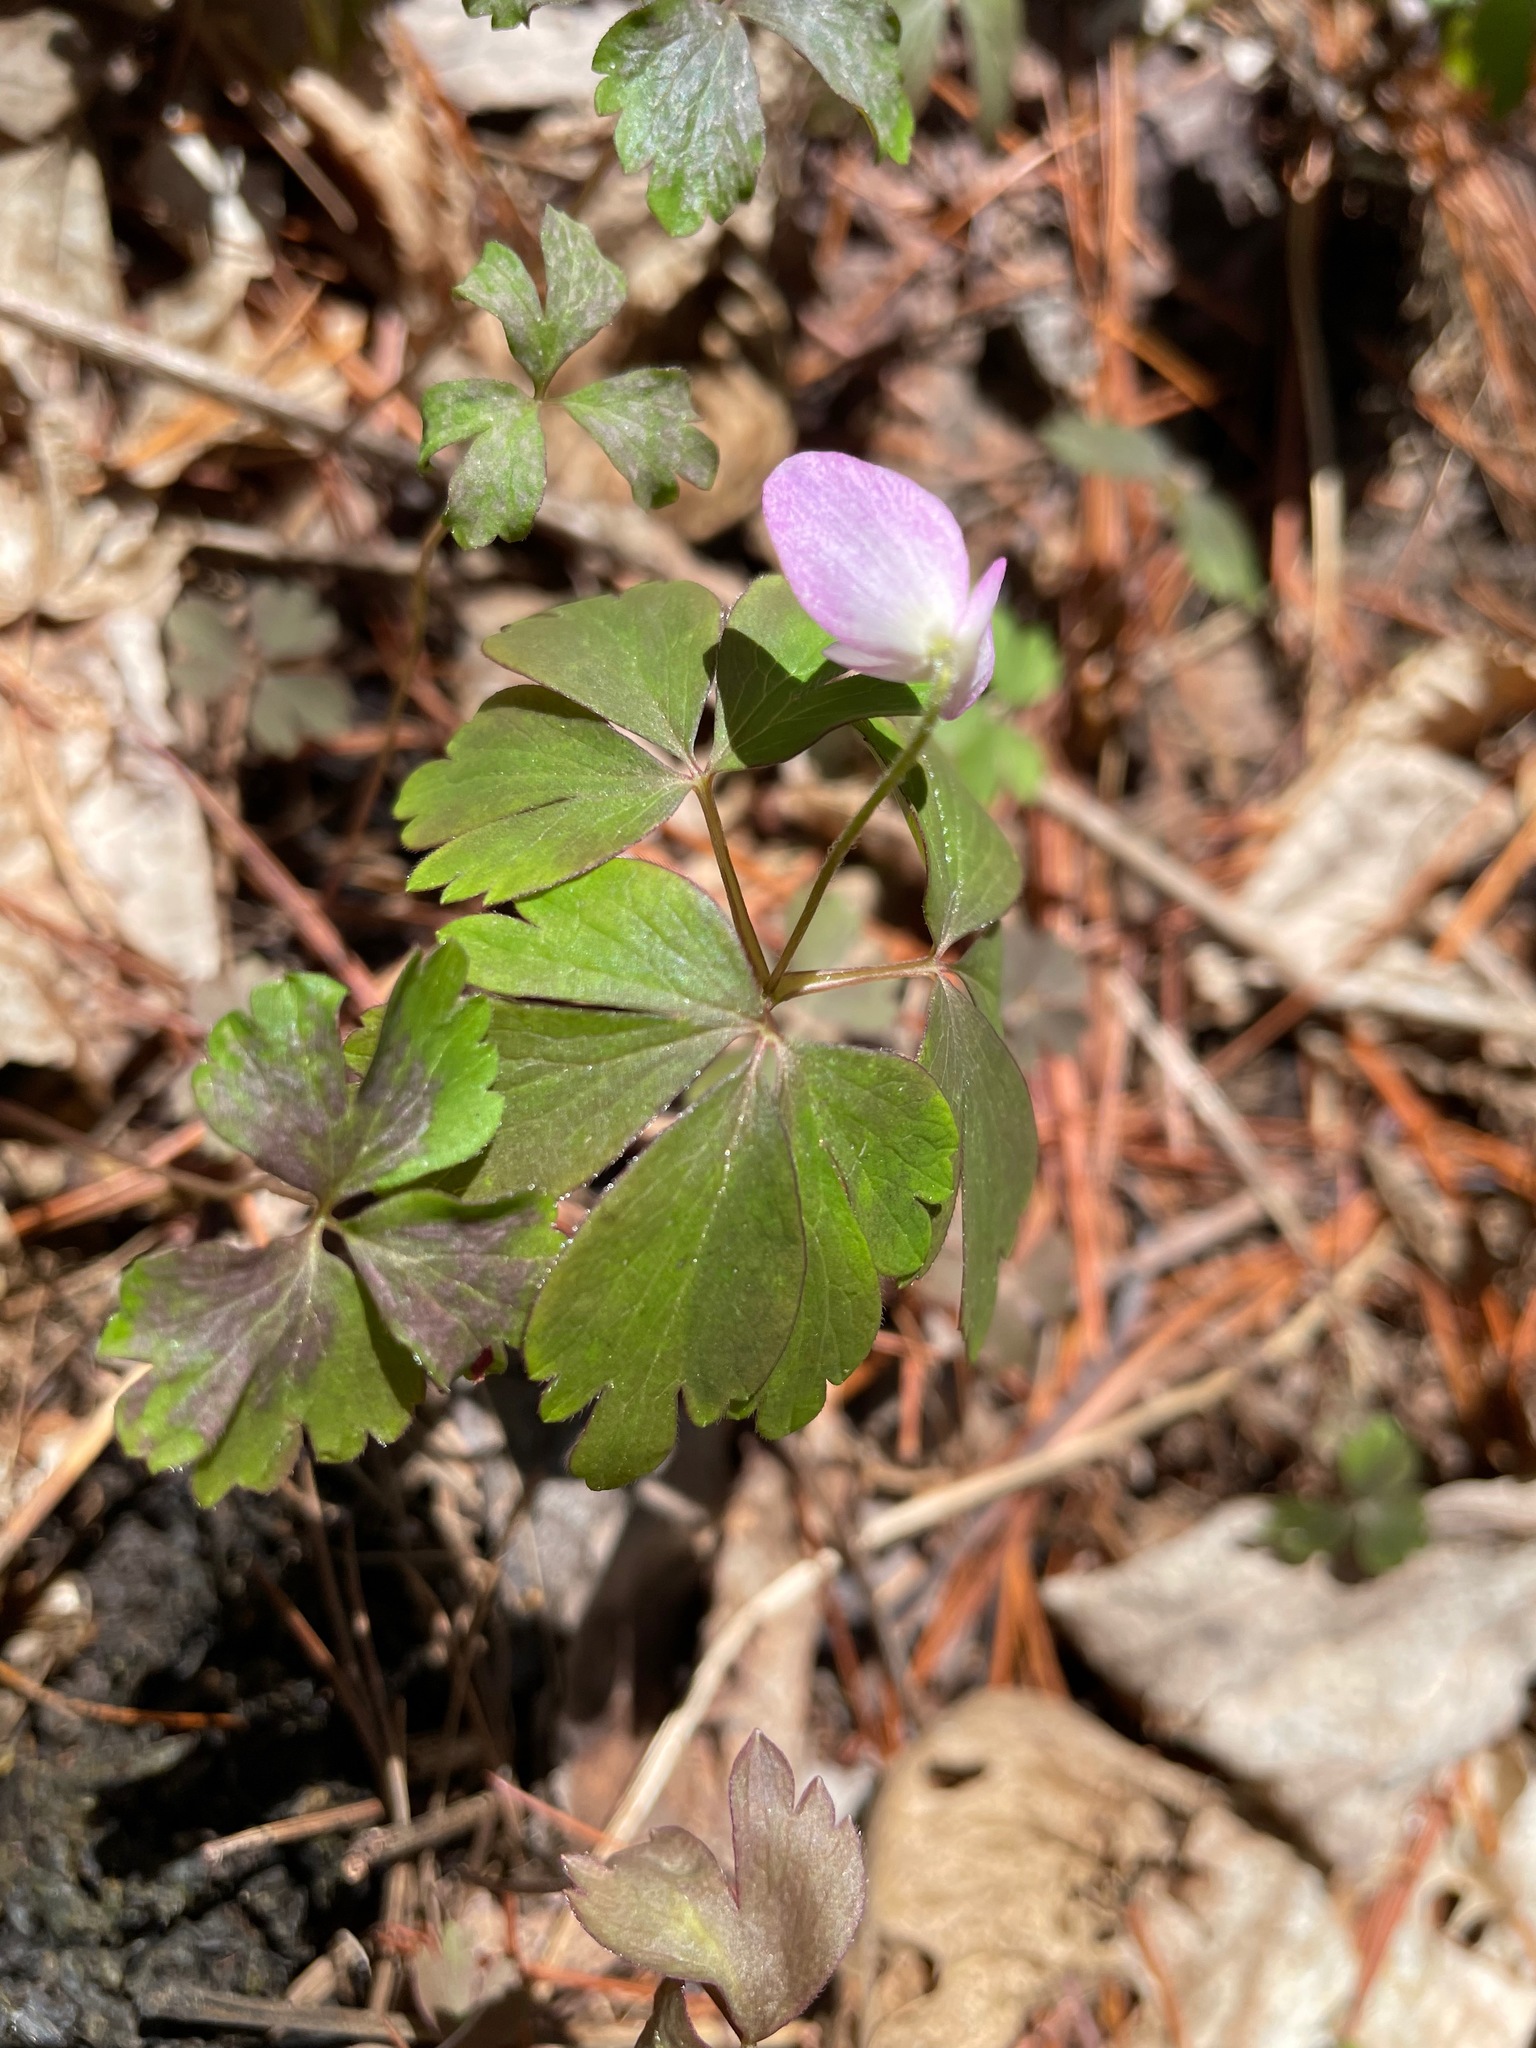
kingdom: Plantae
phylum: Tracheophyta
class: Magnoliopsida
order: Ranunculales
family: Ranunculaceae
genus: Anemone
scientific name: Anemone quinquefolia
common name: Wood anemone
